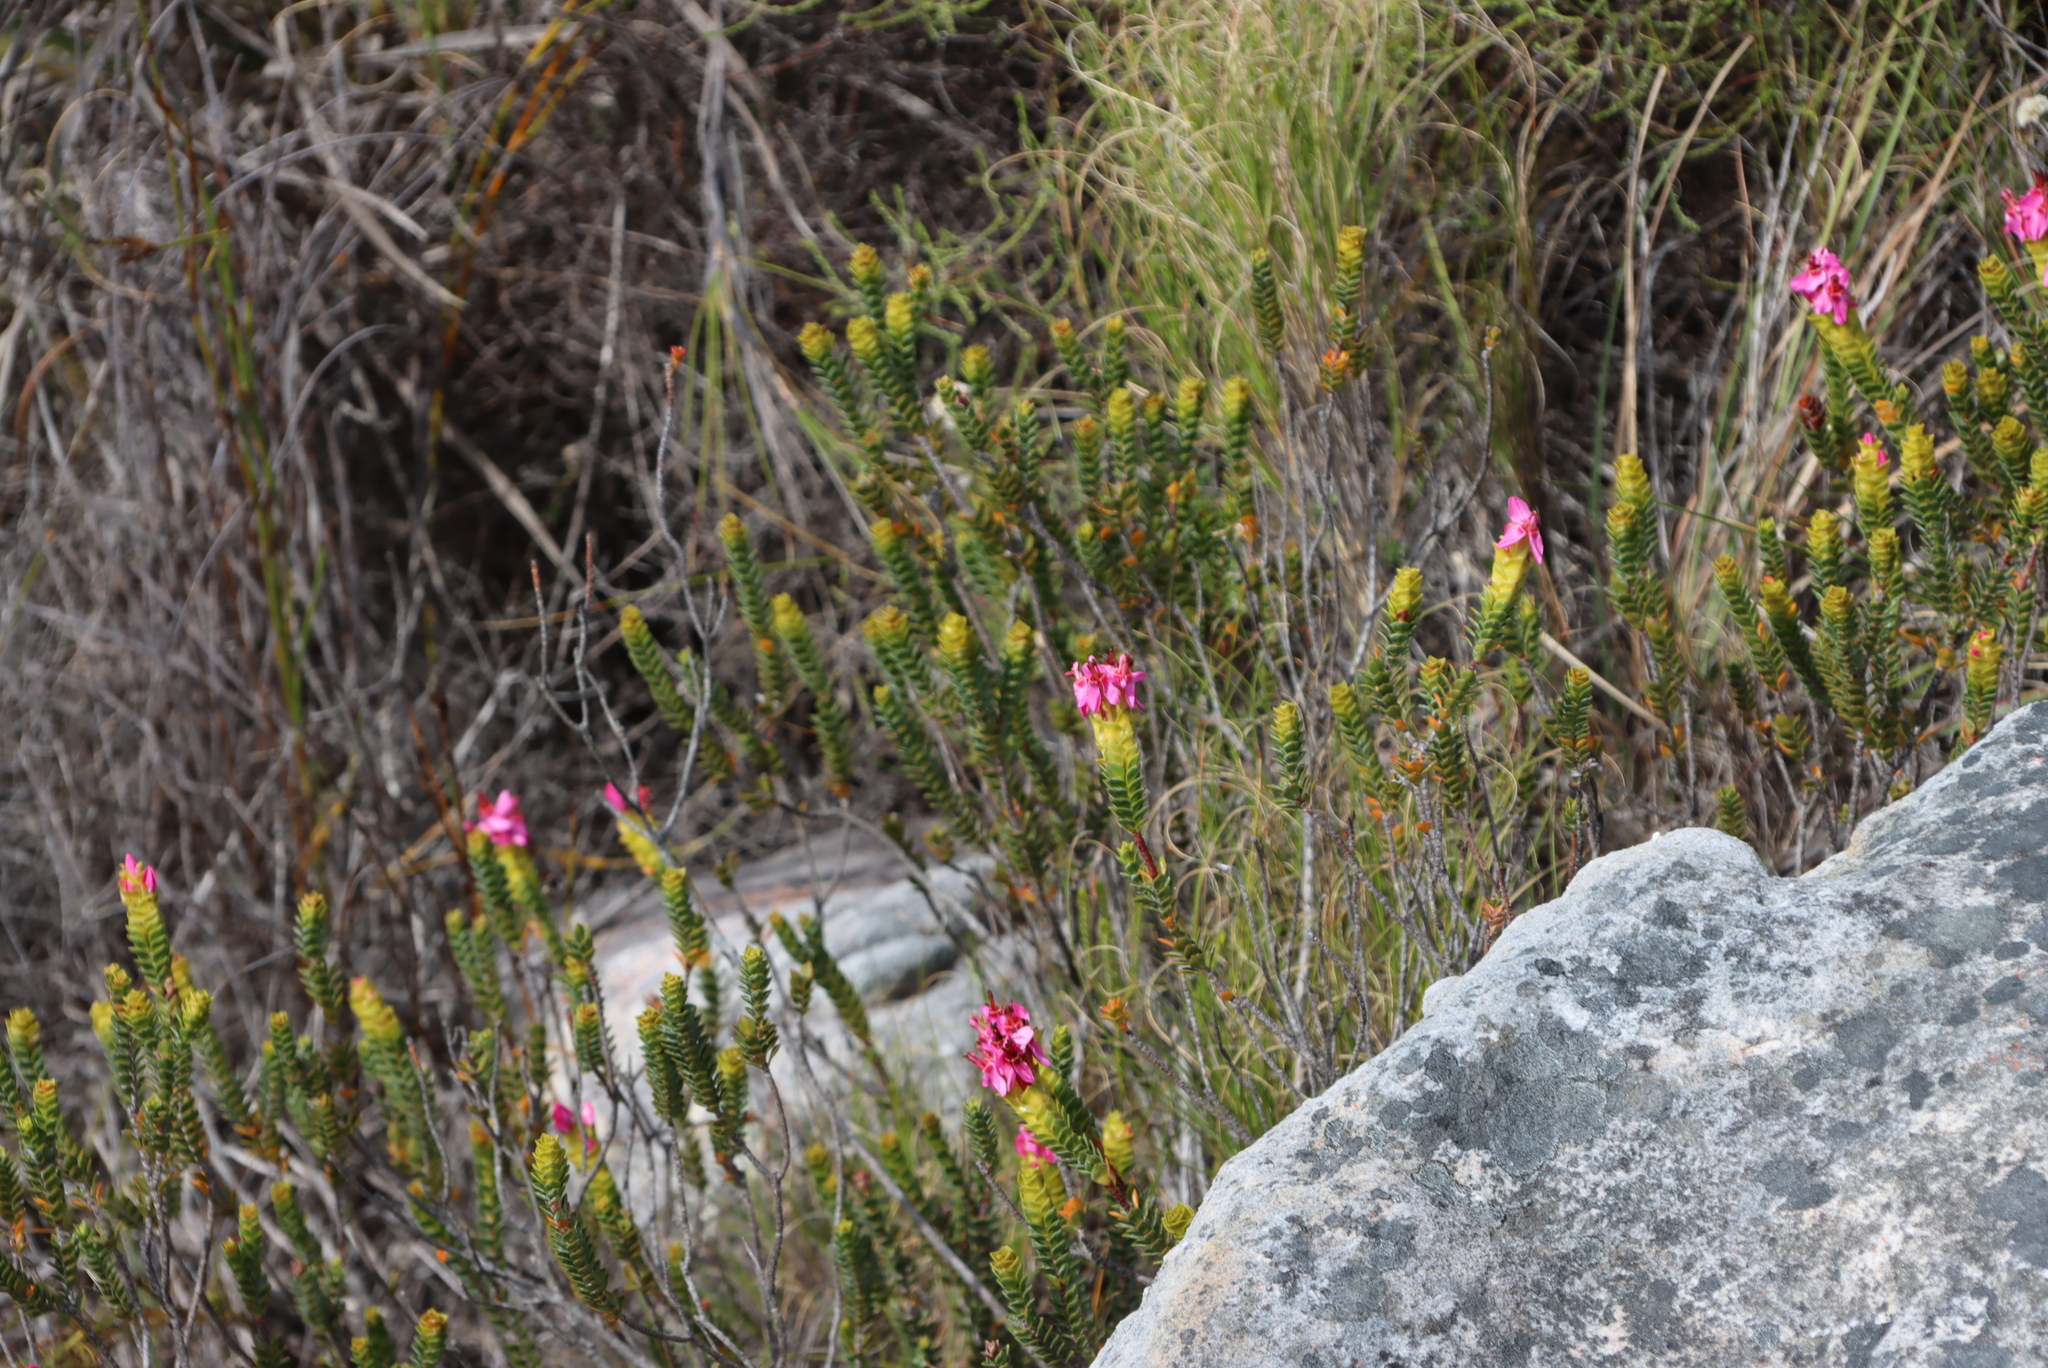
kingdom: Plantae
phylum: Tracheophyta
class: Magnoliopsida
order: Myrtales
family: Penaeaceae
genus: Saltera
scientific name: Saltera sarcocolla
